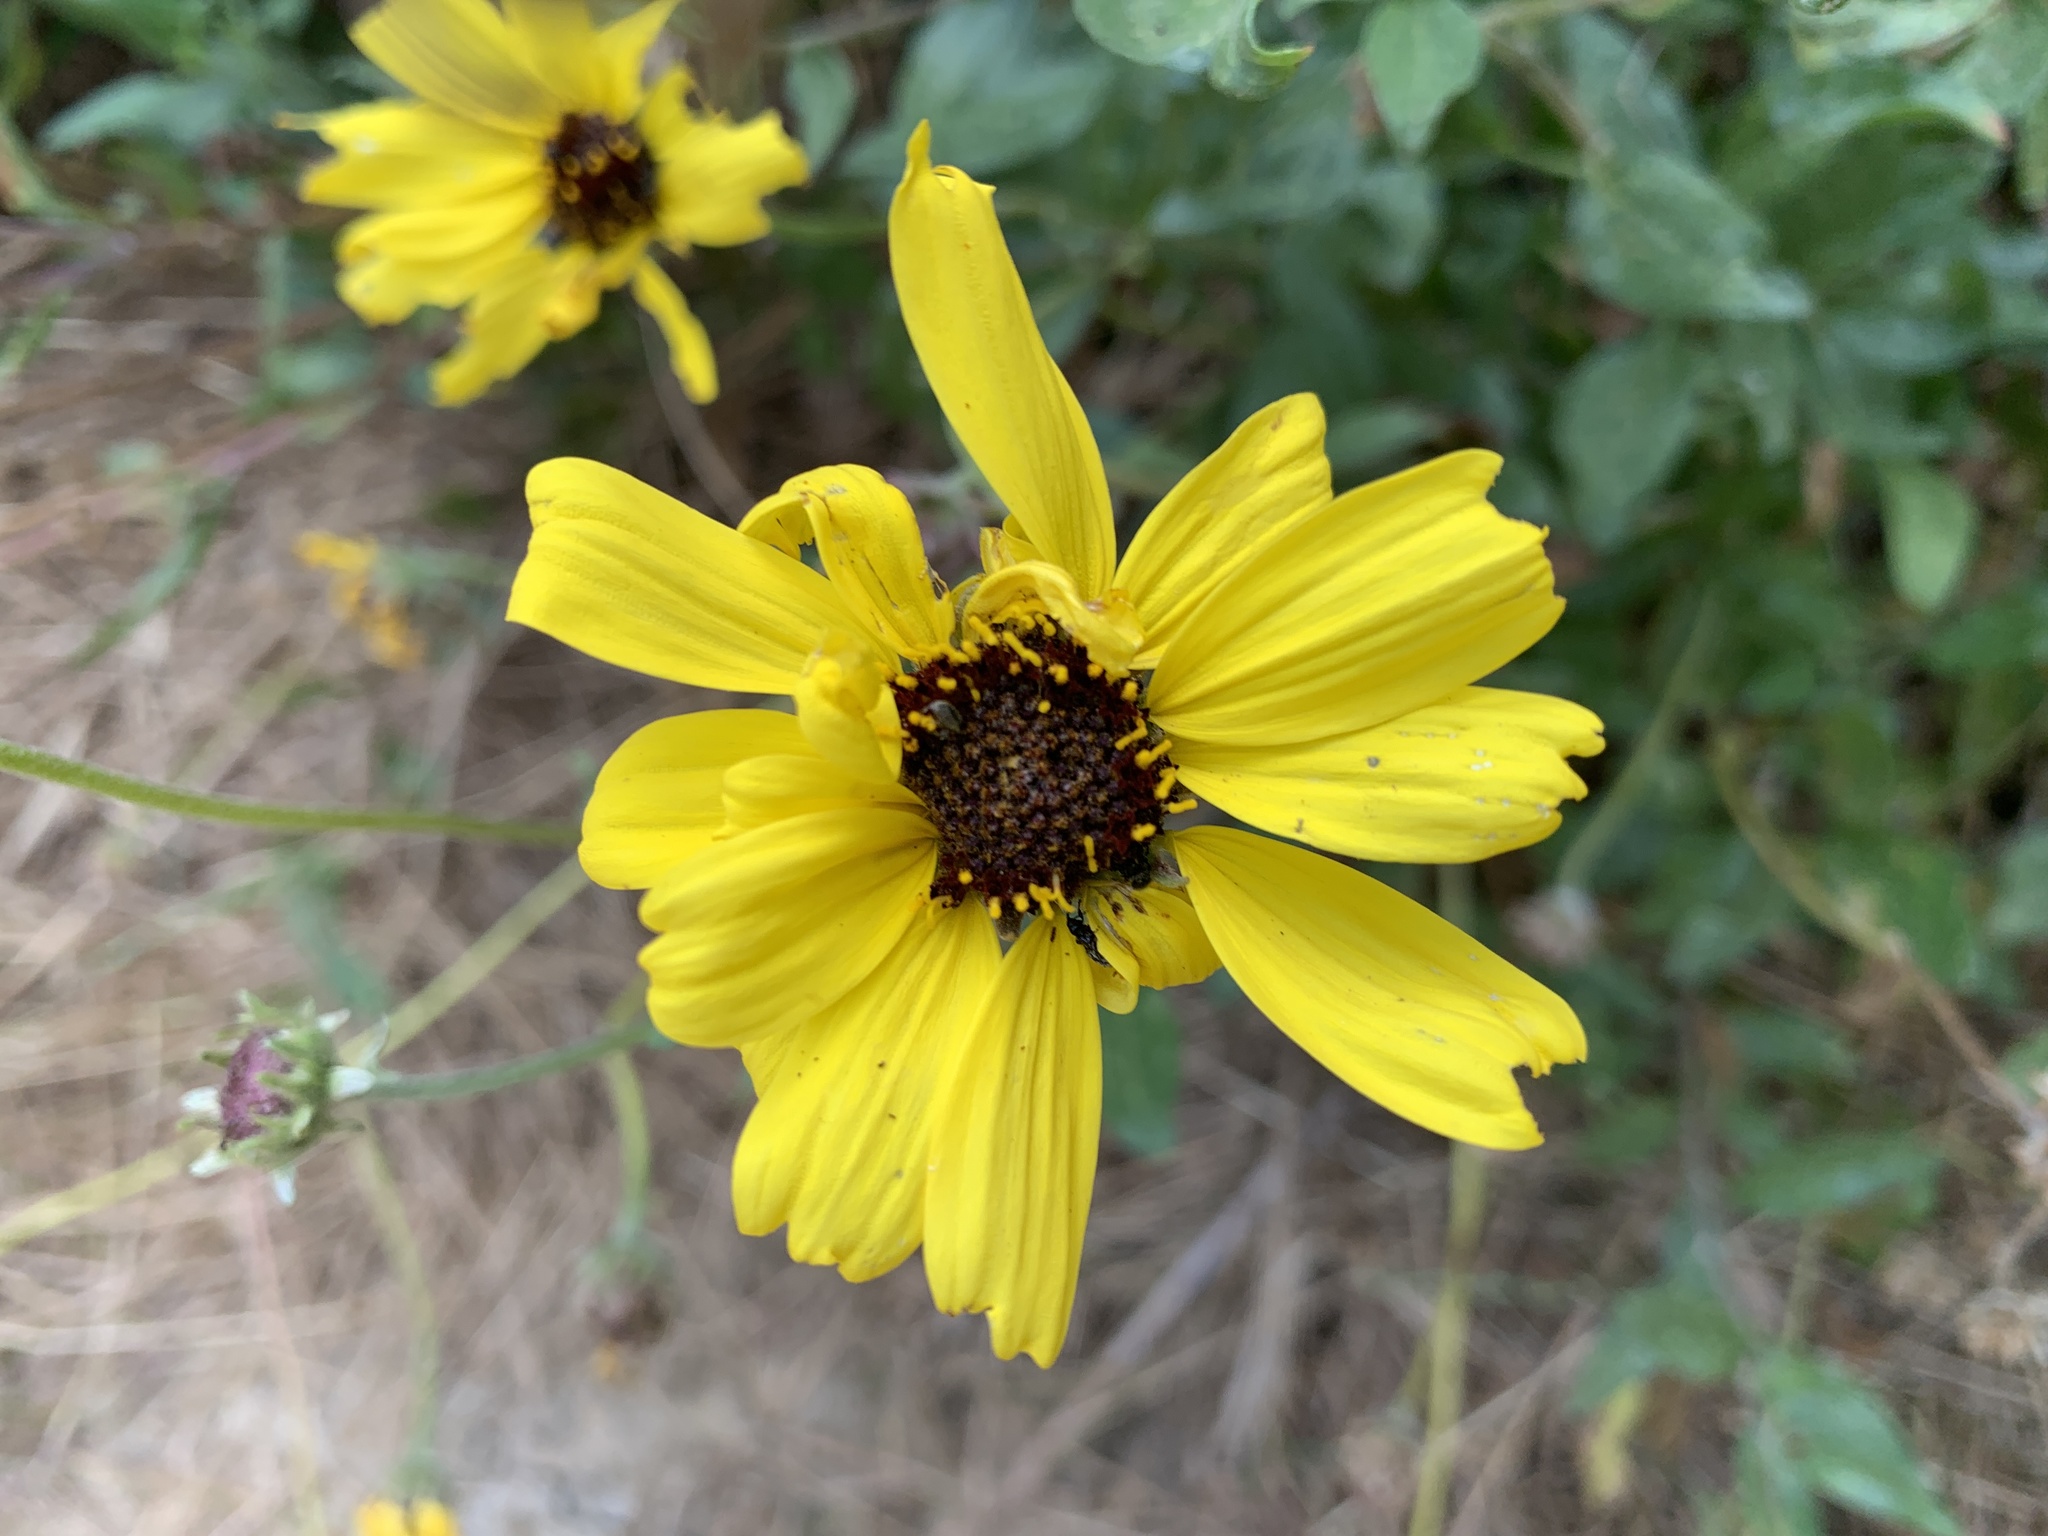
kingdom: Plantae
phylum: Tracheophyta
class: Magnoliopsida
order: Asterales
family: Asteraceae
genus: Encelia
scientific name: Encelia californica
